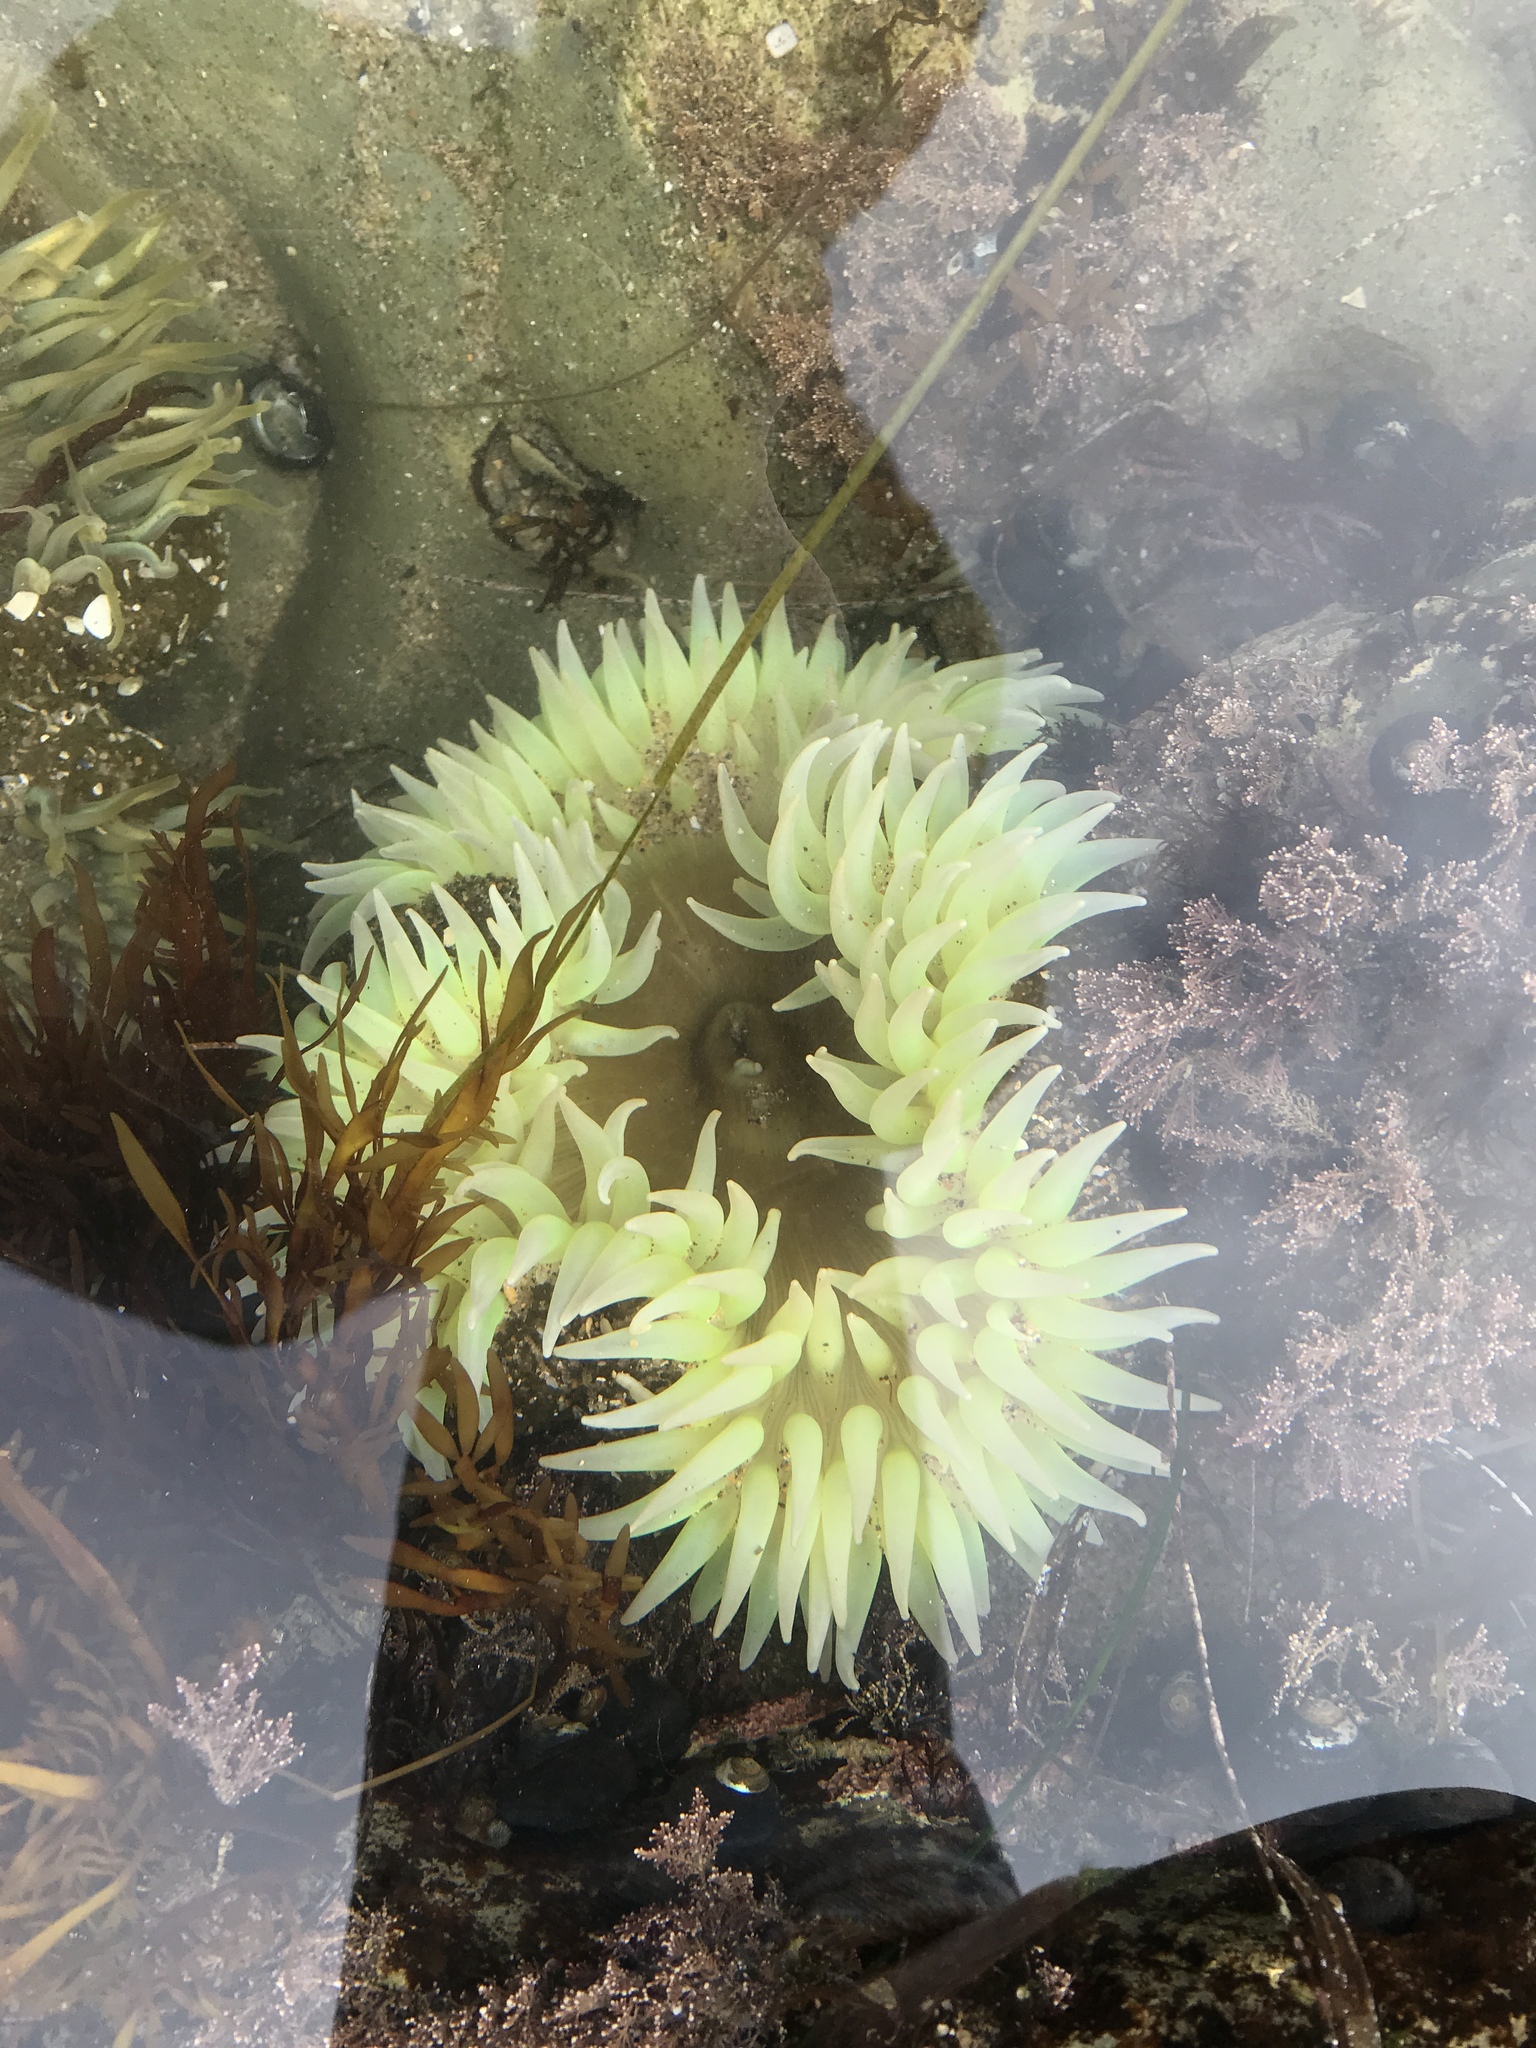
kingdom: Animalia
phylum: Cnidaria
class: Anthozoa
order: Actiniaria
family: Actiniidae
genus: Anthopleura
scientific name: Anthopleura xanthogrammica
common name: Giant green anemone
